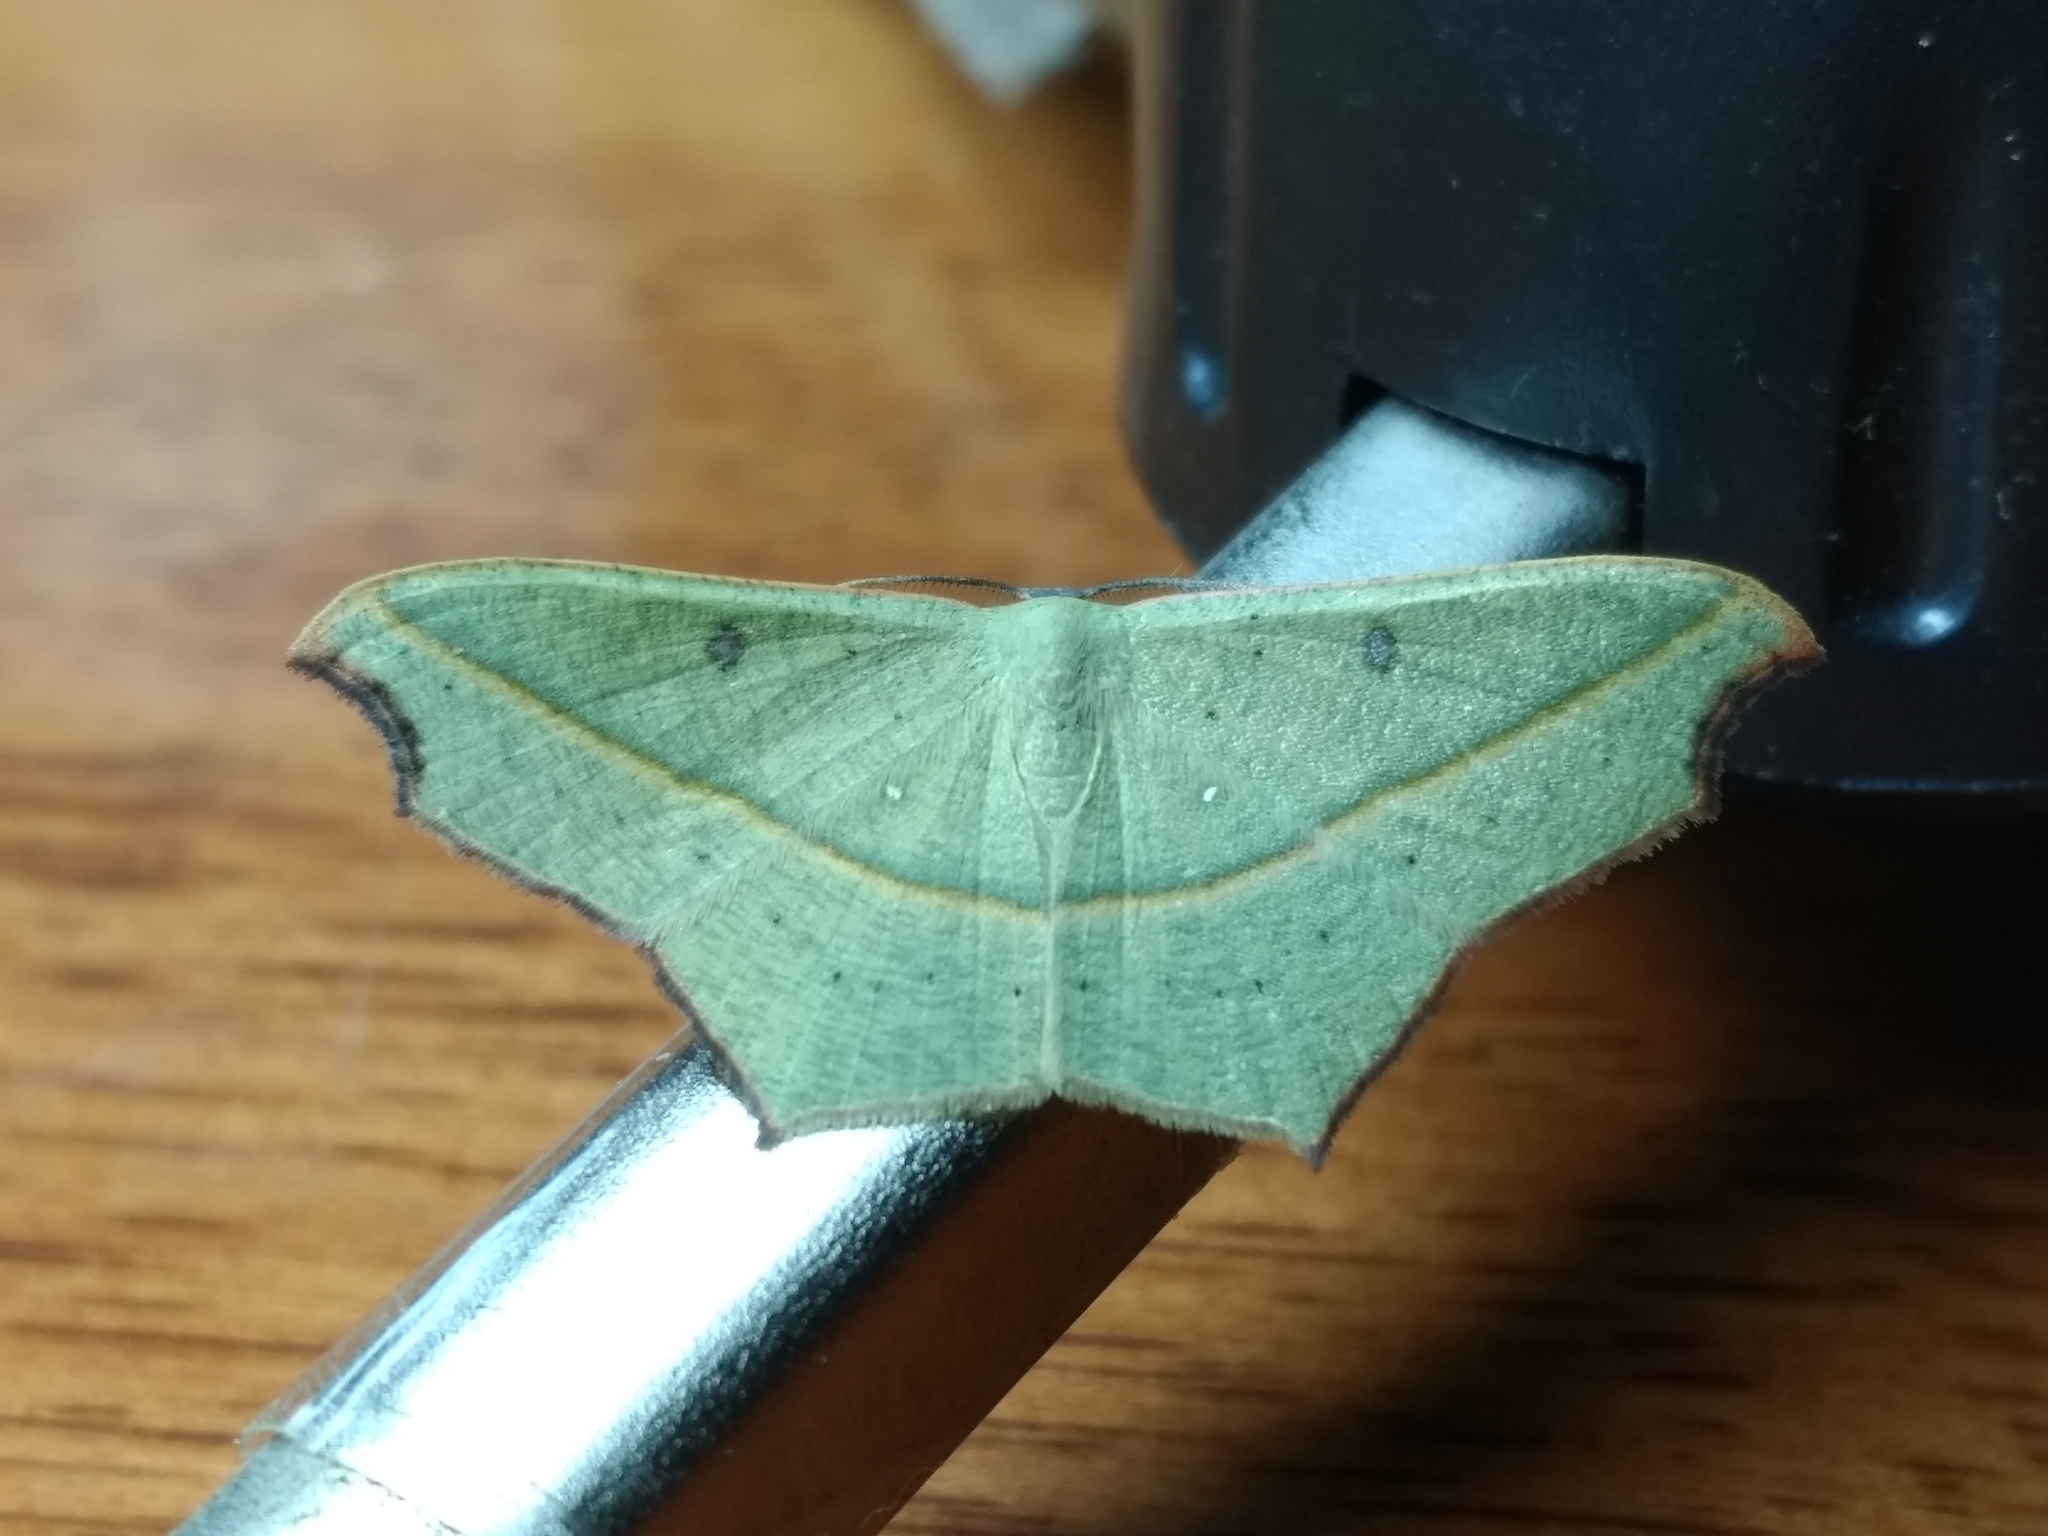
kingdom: Animalia
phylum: Arthropoda
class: Insecta
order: Lepidoptera
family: Geometridae
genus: Traminda
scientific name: Traminda aventiaria
